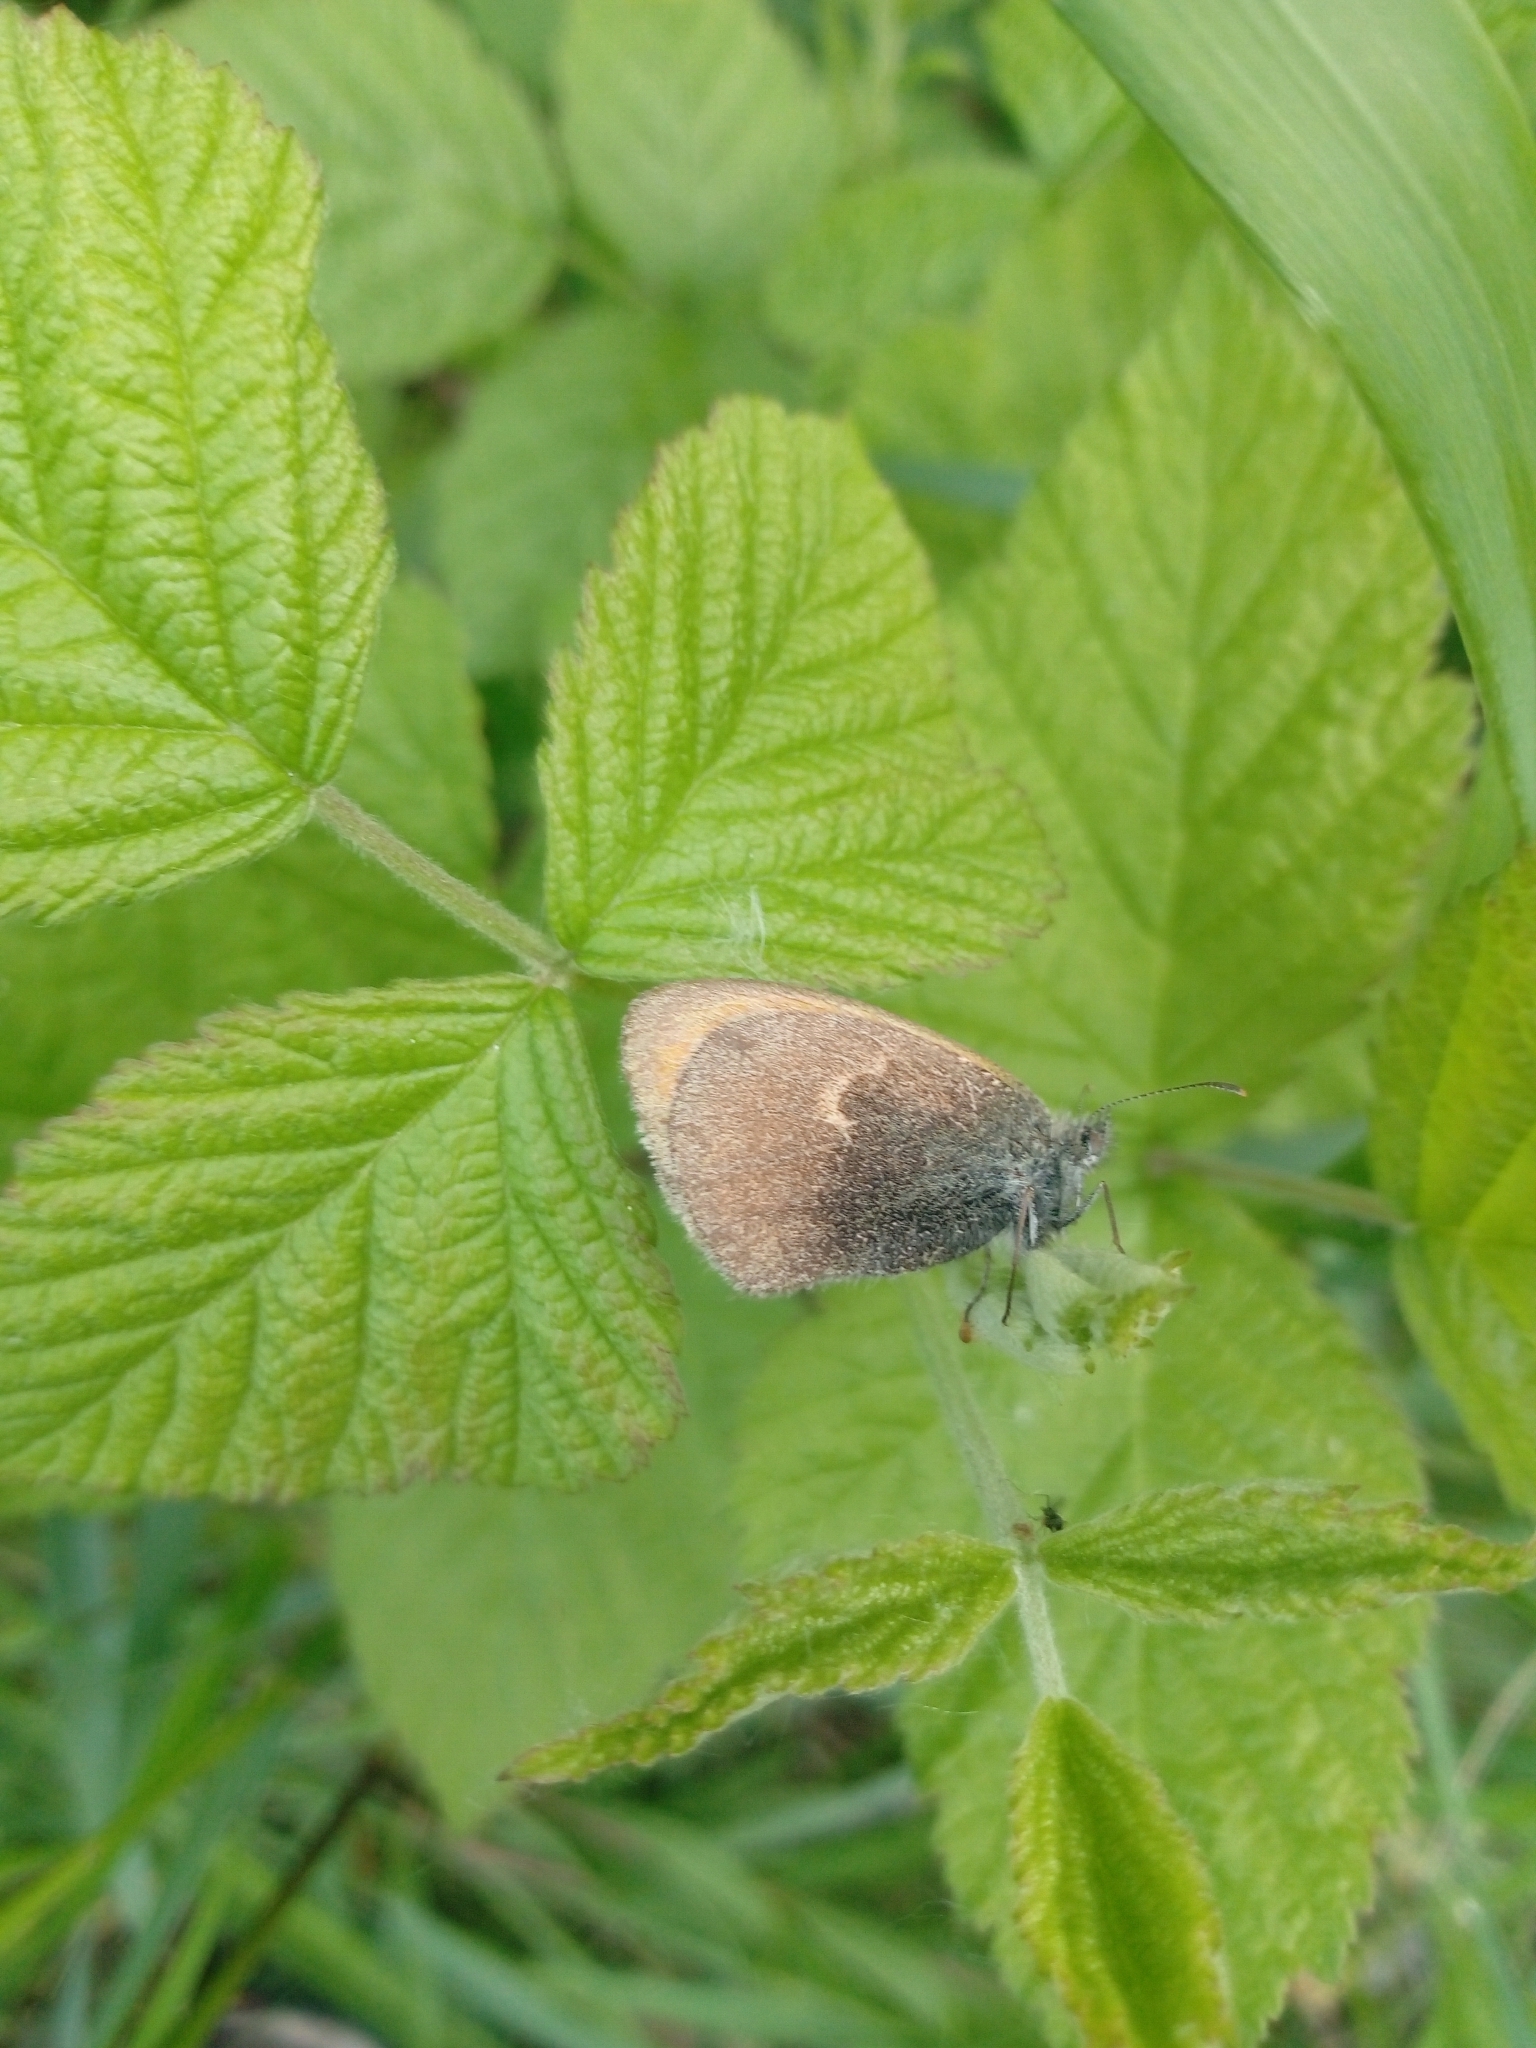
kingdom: Animalia
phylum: Arthropoda
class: Insecta
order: Lepidoptera
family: Nymphalidae
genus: Coenonympha
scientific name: Coenonympha pamphilus
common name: Small heath
